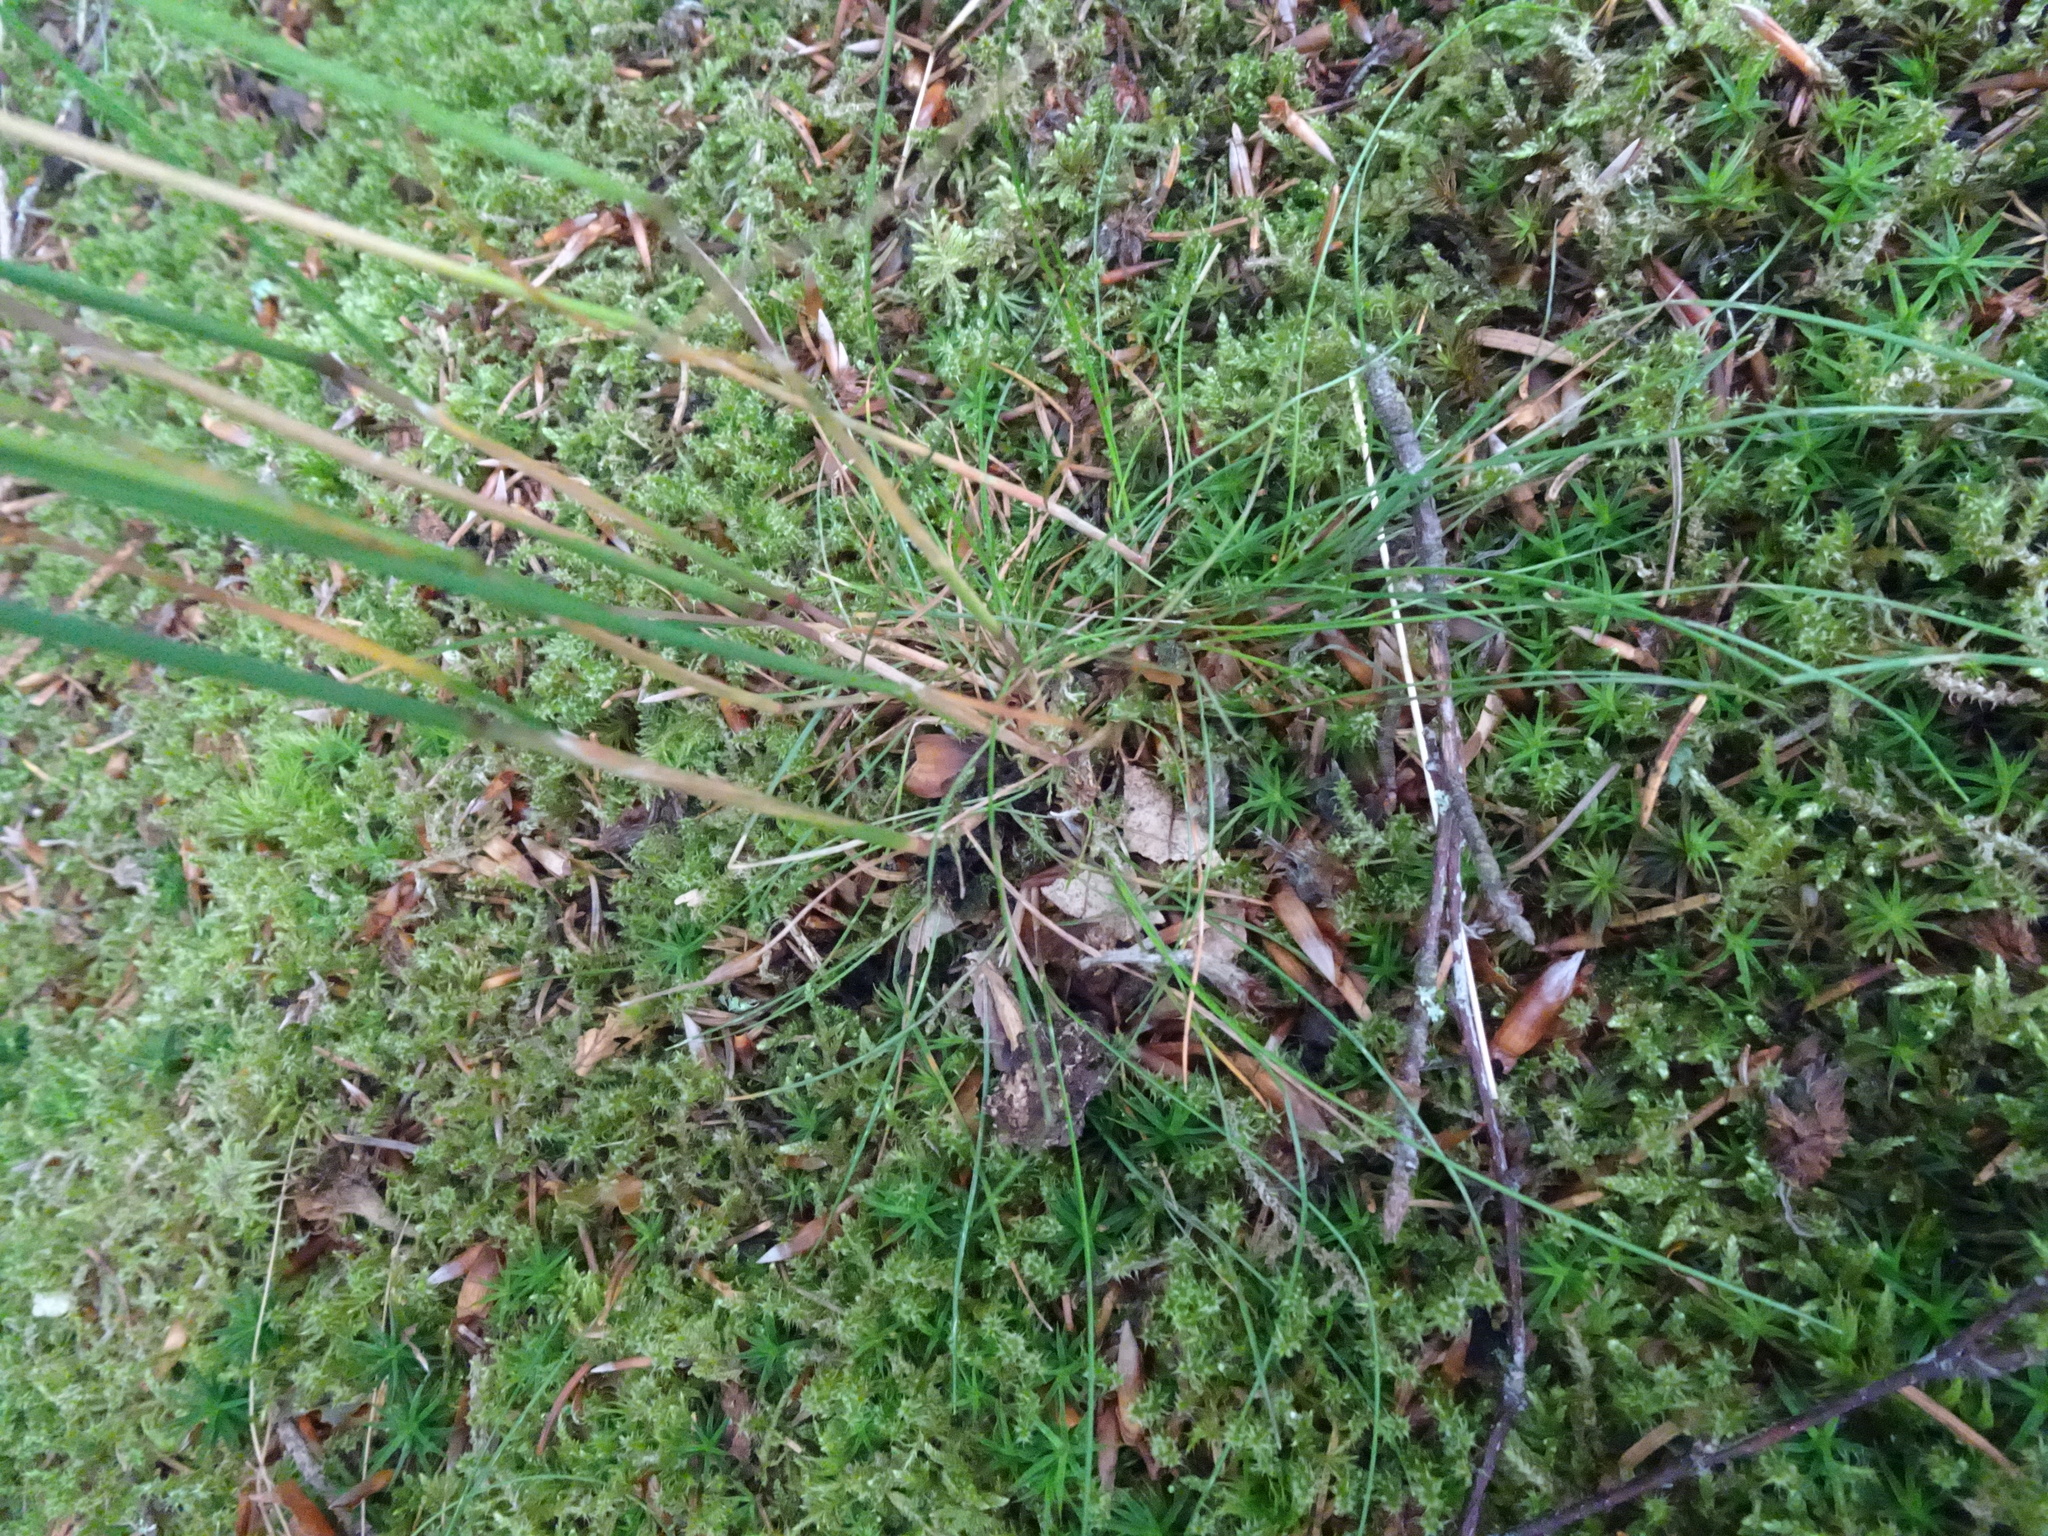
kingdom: Plantae
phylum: Tracheophyta
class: Liliopsida
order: Poales
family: Poaceae
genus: Avenella
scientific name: Avenella flexuosa
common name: Wavy hairgrass
